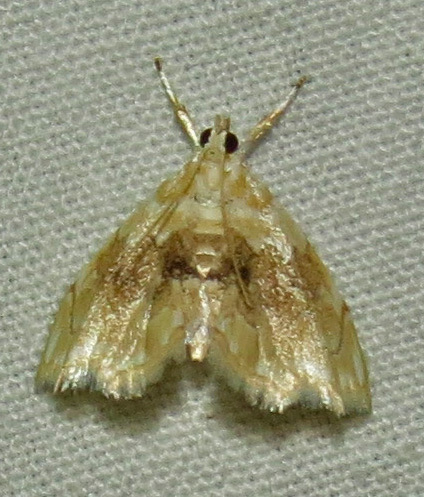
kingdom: Animalia
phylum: Arthropoda
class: Insecta
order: Lepidoptera
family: Crambidae
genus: Lipocosma
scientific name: Lipocosma sicalis
